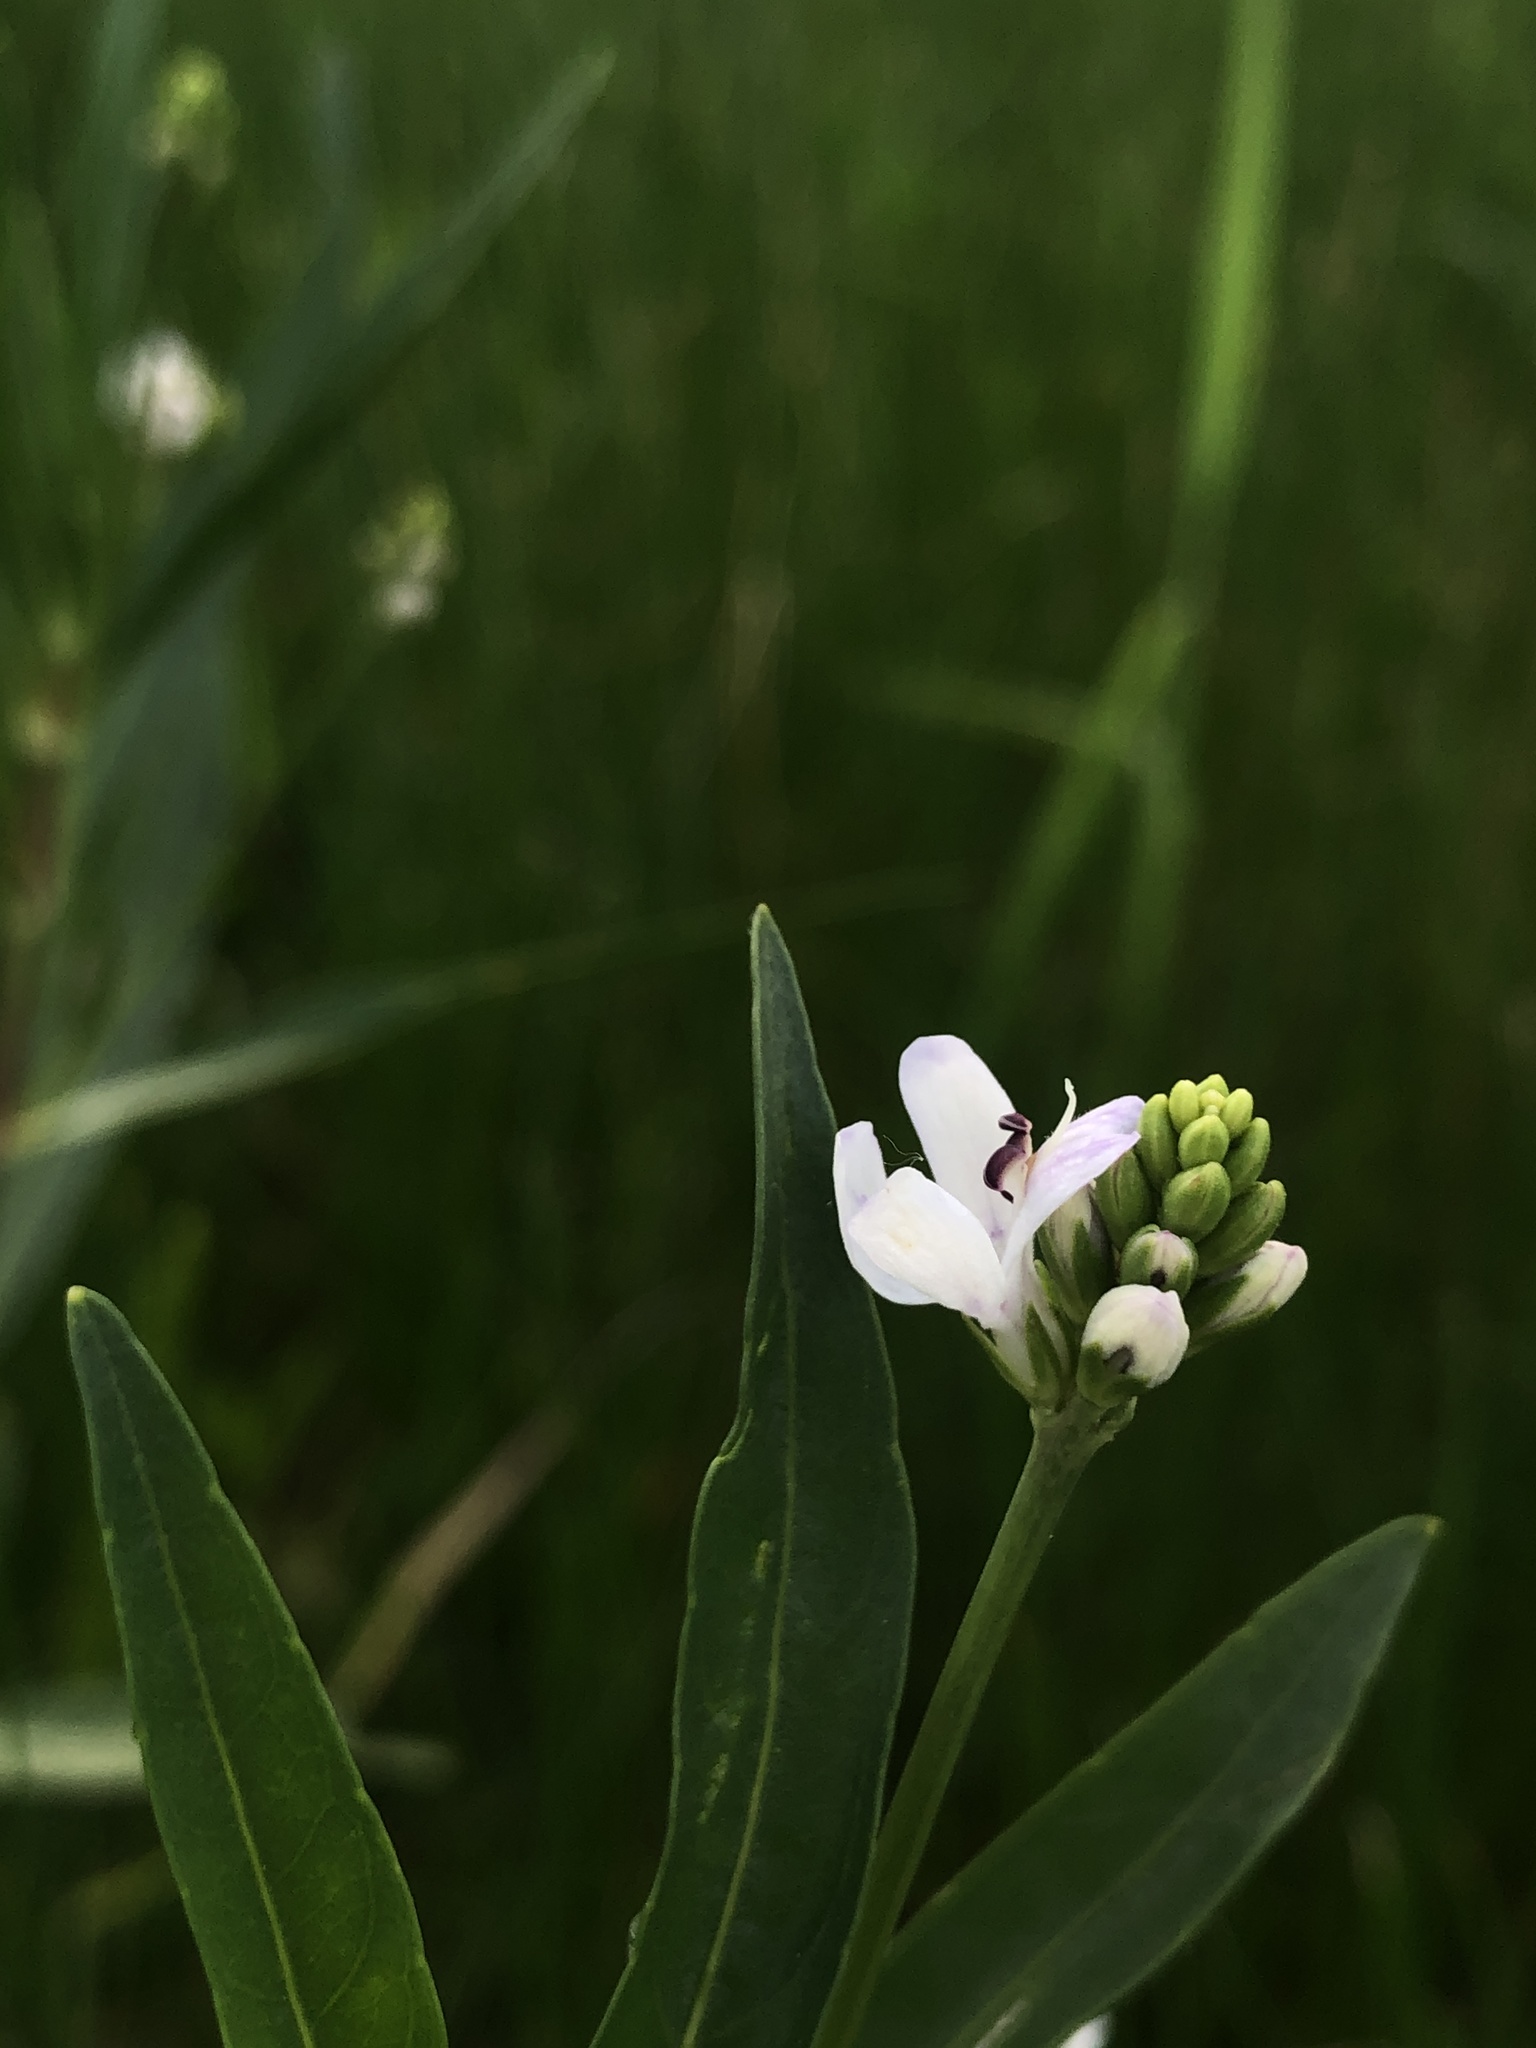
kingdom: Plantae
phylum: Tracheophyta
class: Magnoliopsida
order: Lamiales
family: Acanthaceae
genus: Dianthera
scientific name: Dianthera americana
